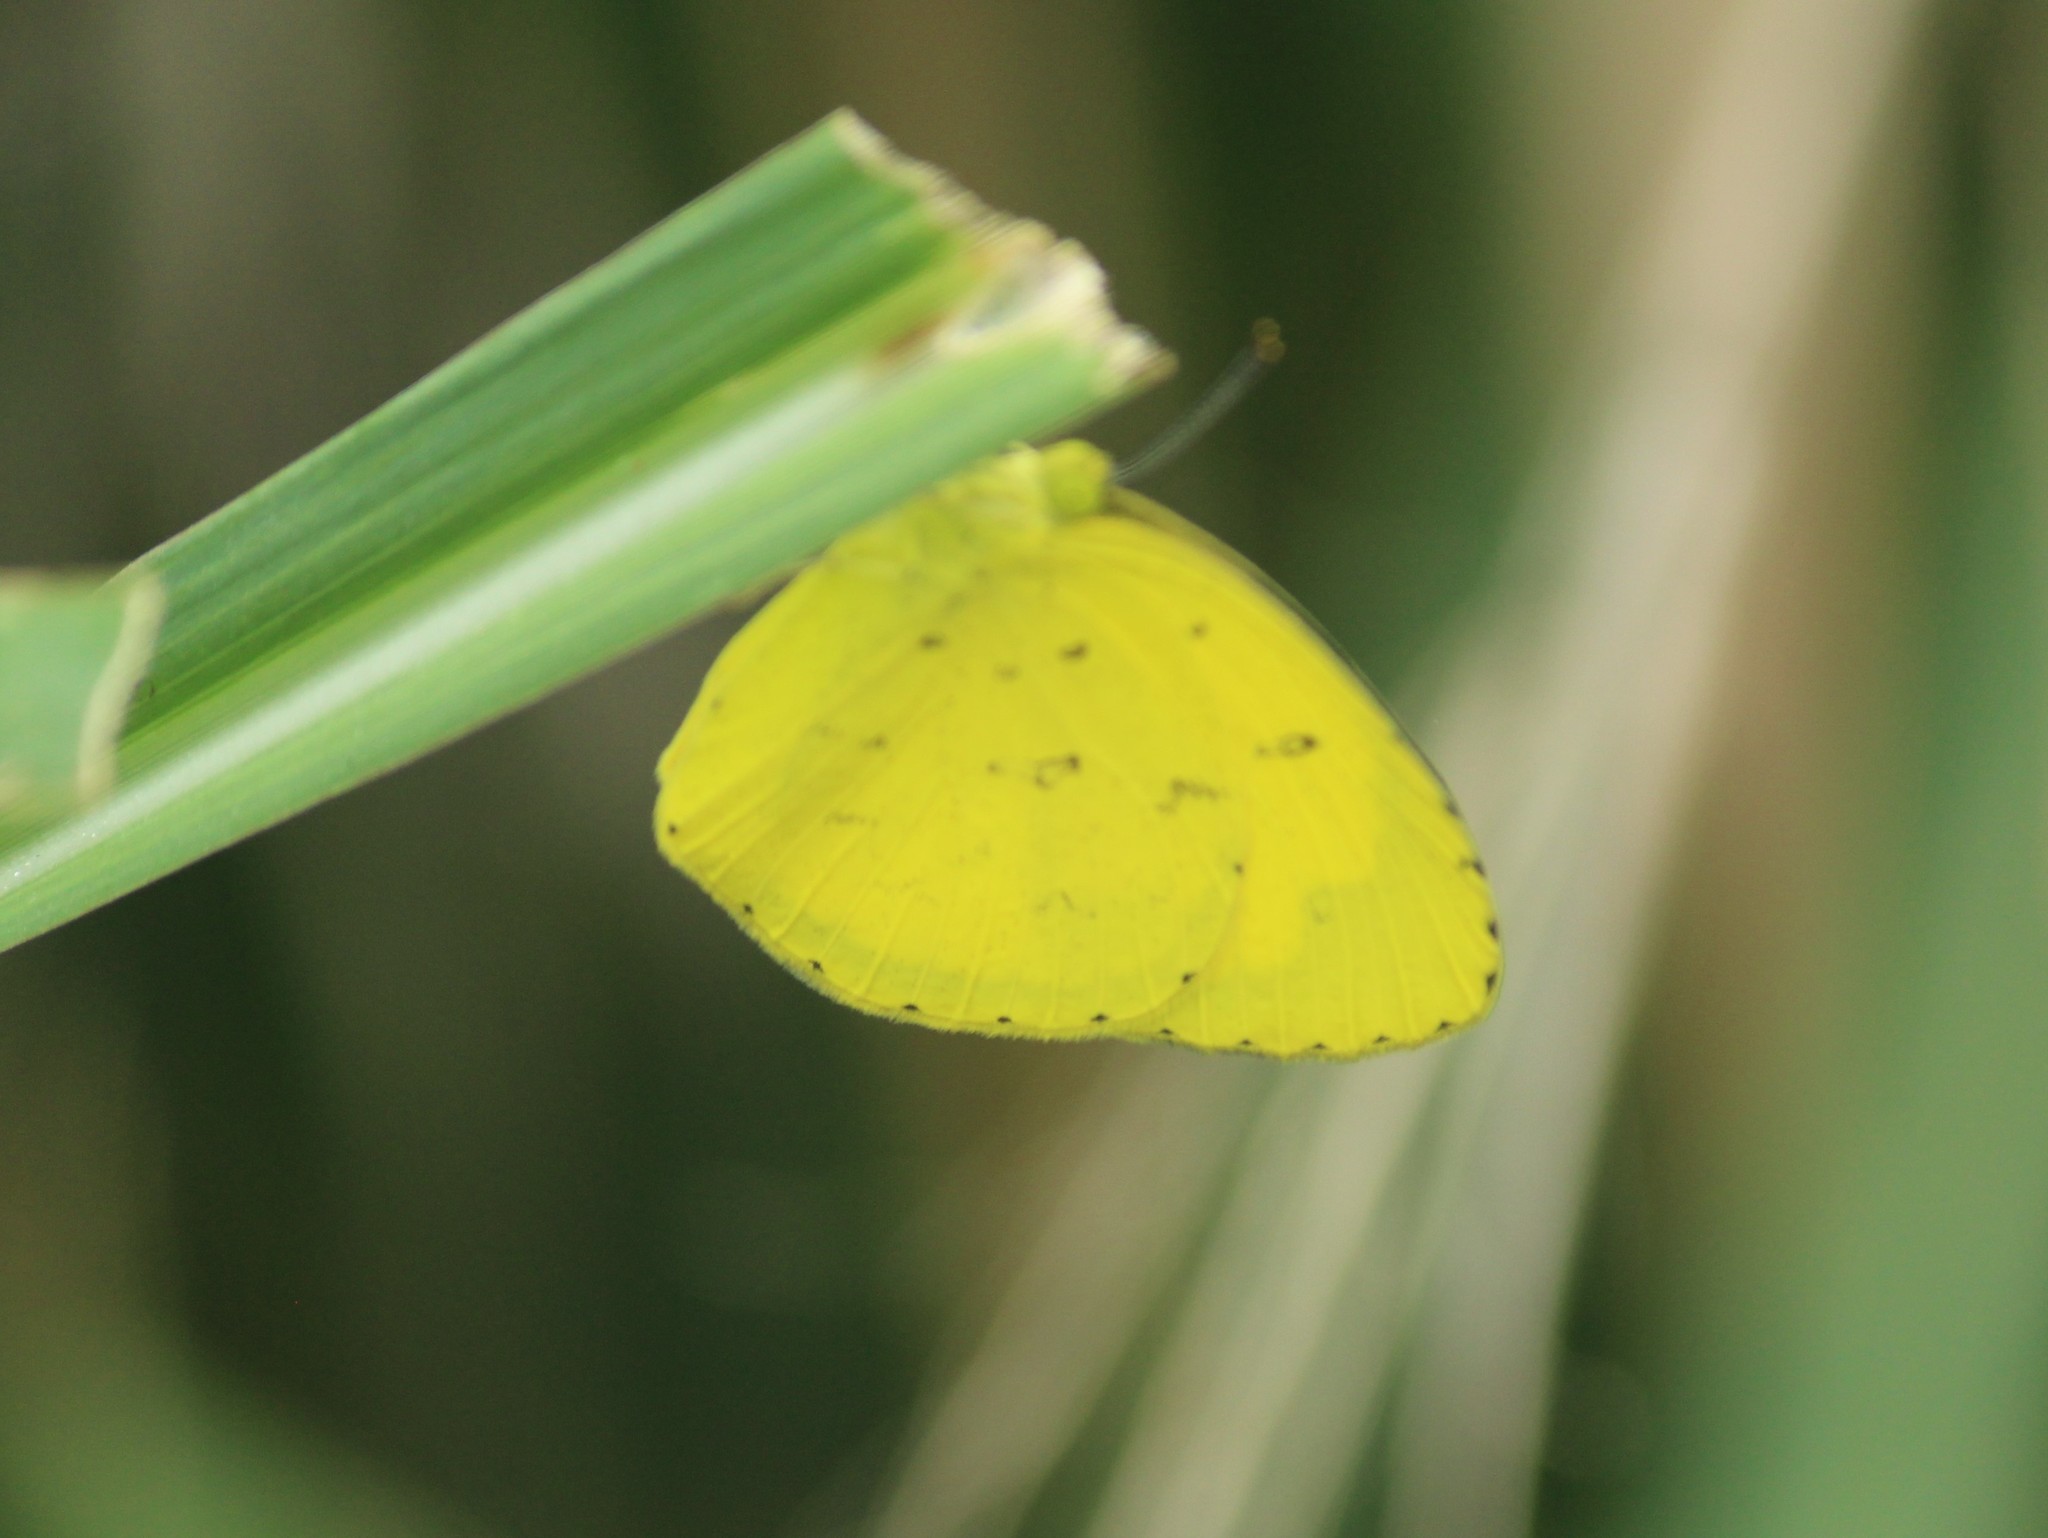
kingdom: Animalia
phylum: Arthropoda
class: Insecta
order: Lepidoptera
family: Pieridae
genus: Eurema
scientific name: Eurema hecabe
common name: Pale grass yellow
